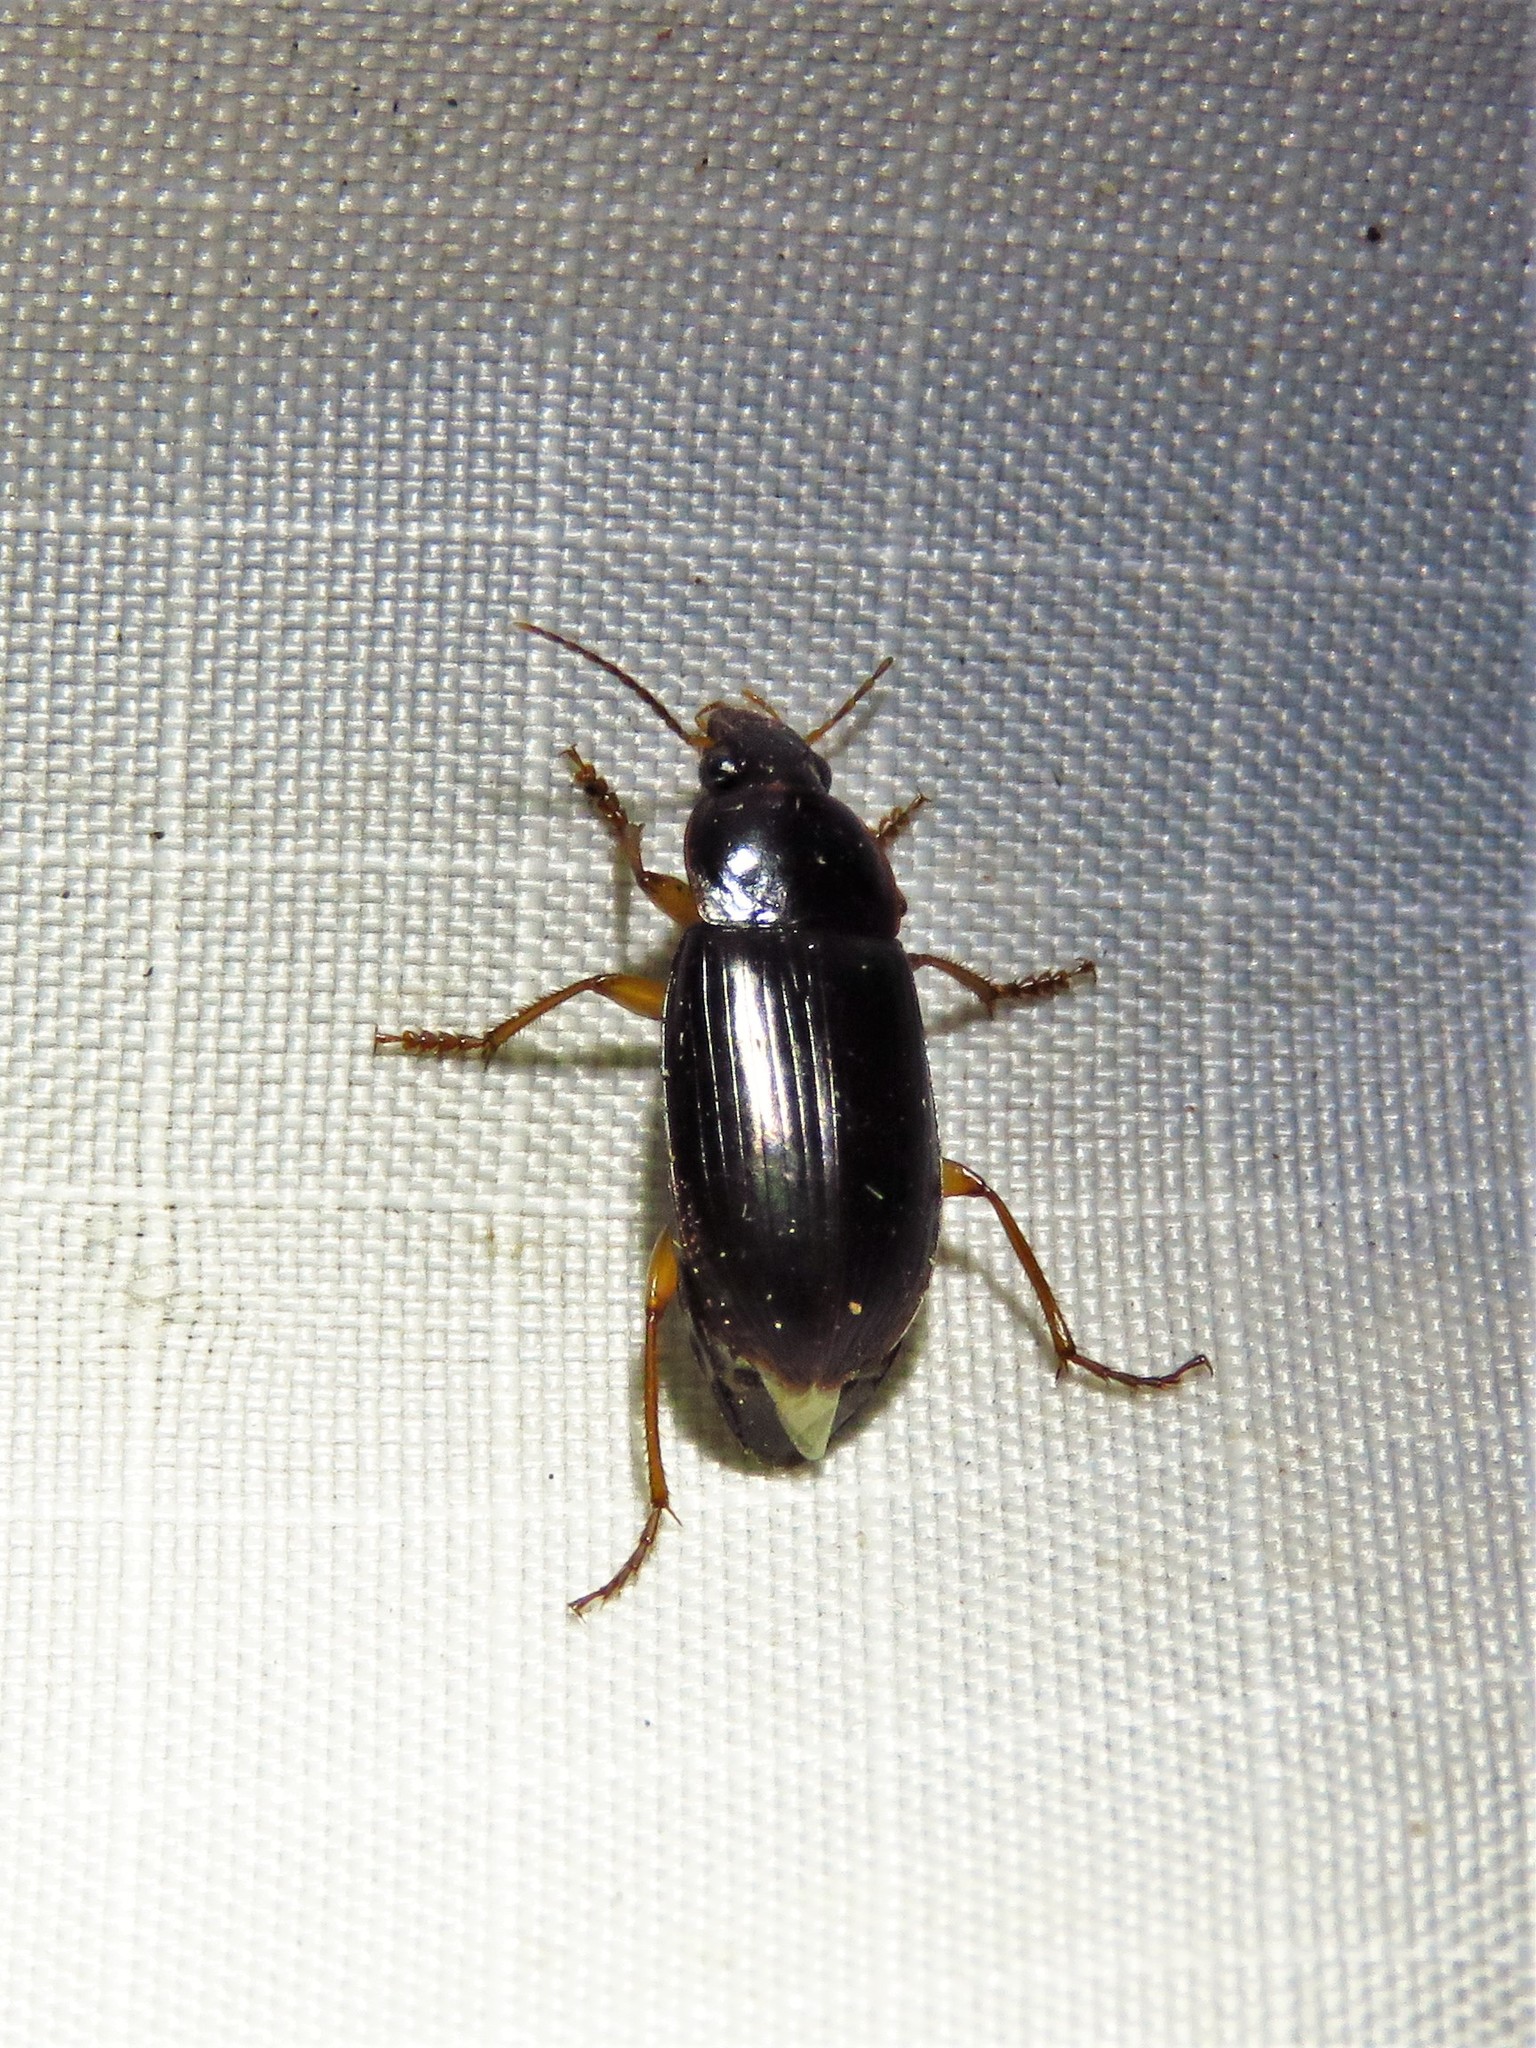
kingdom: Animalia
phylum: Arthropoda
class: Insecta
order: Coleoptera
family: Carabidae
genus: Notiobia
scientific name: Notiobia terminata
